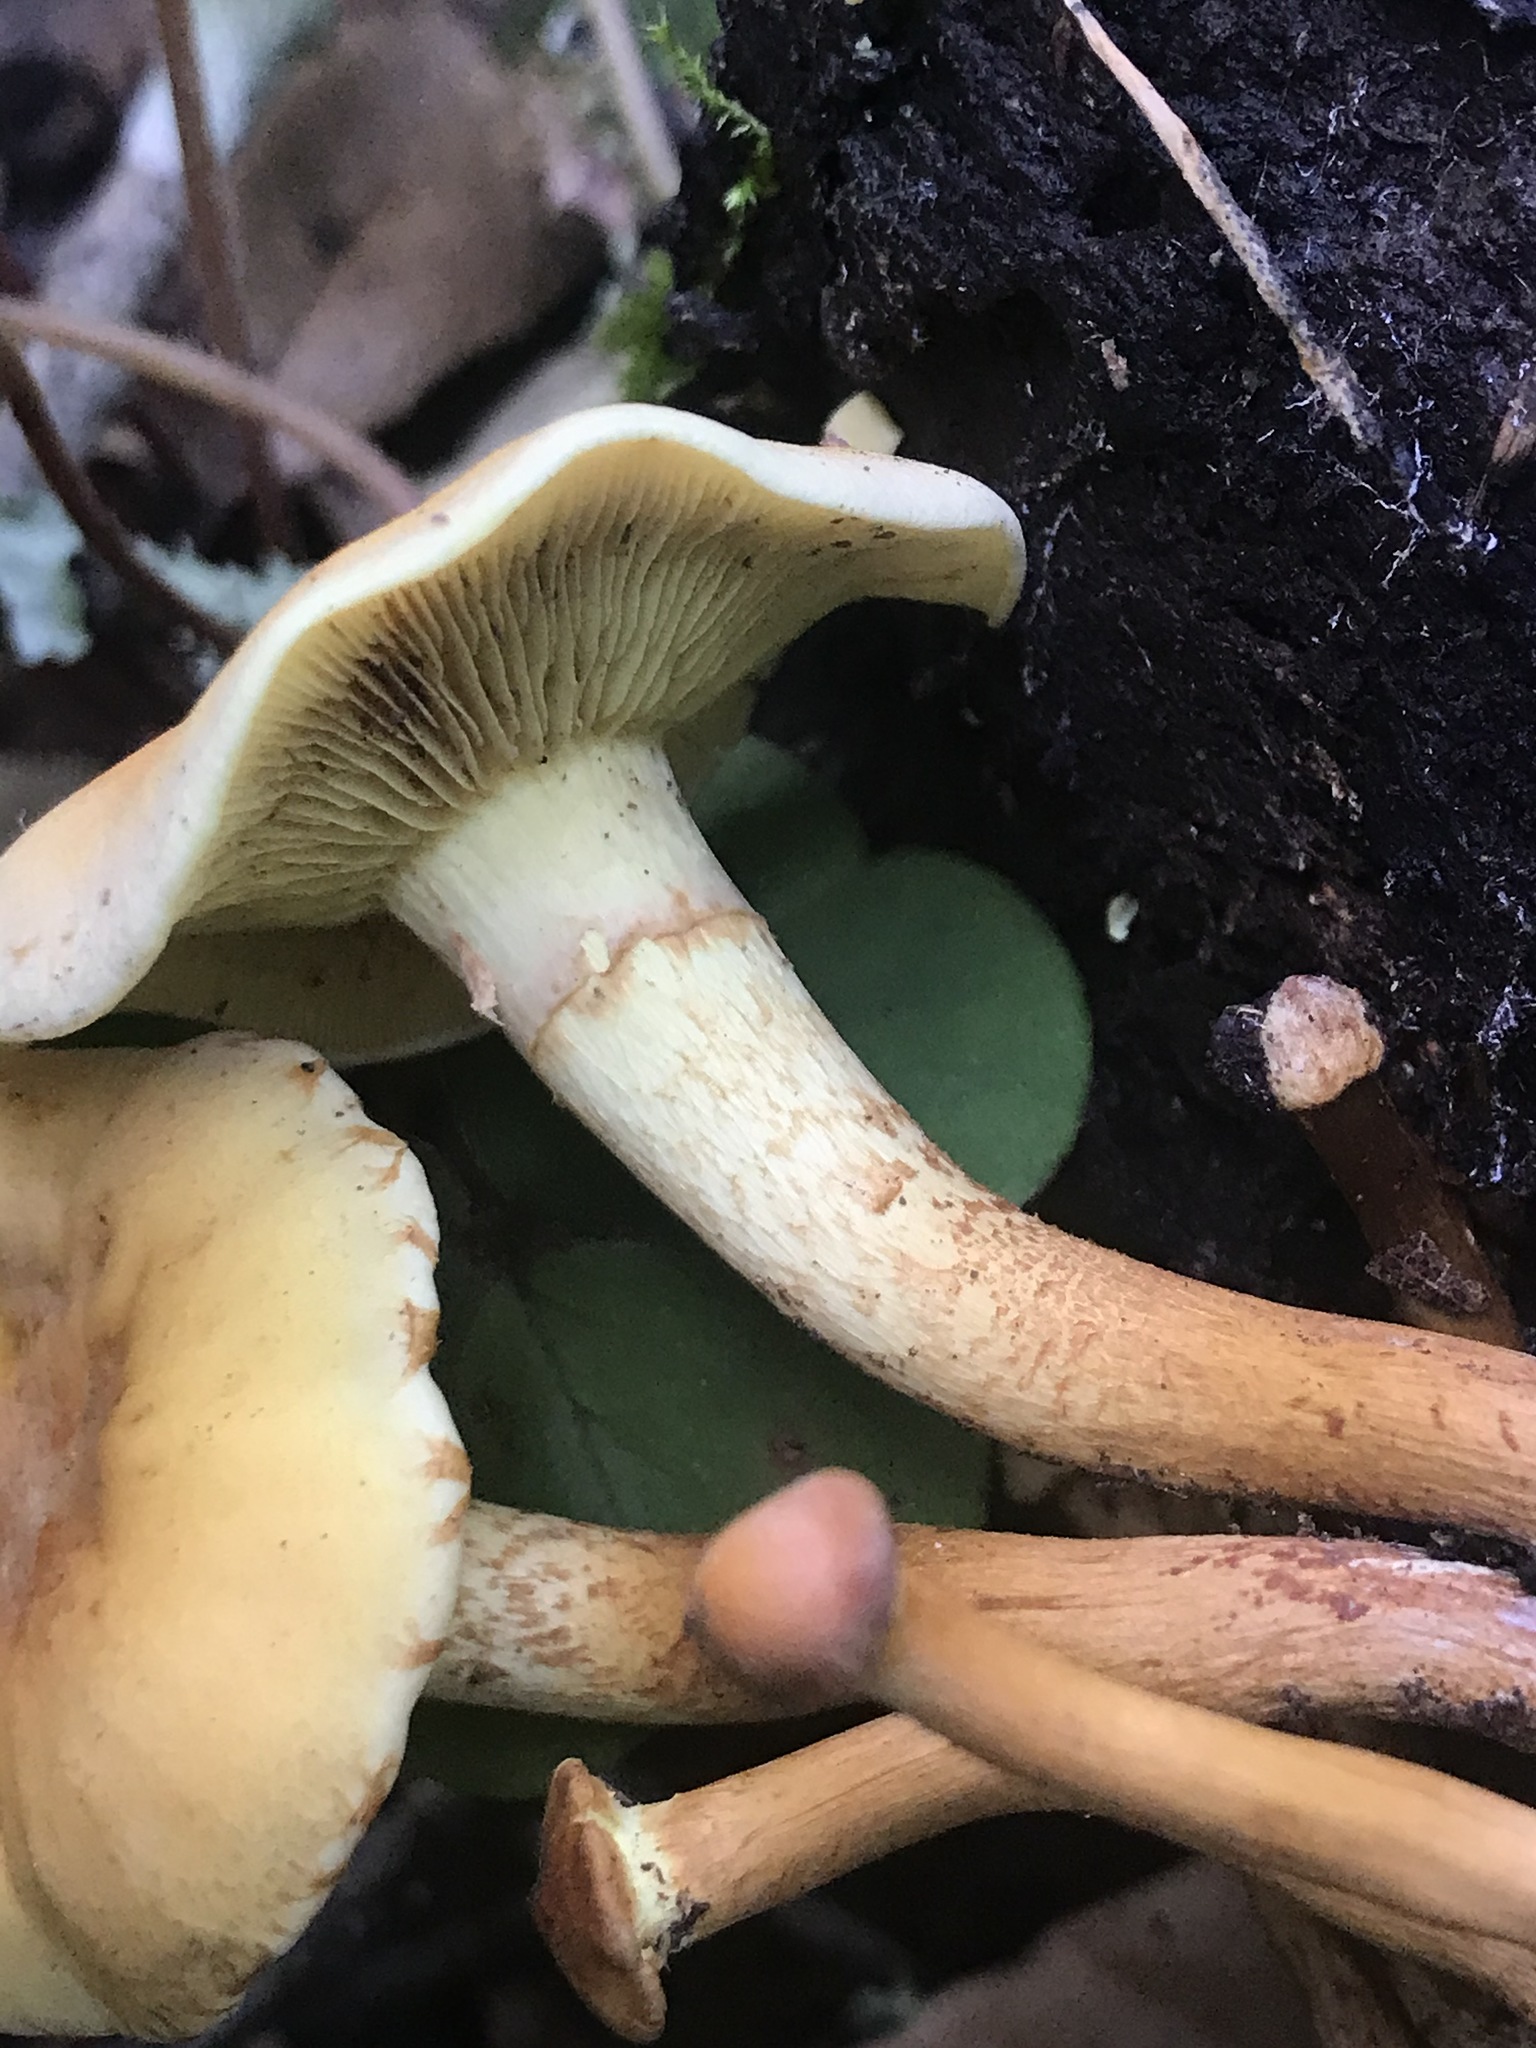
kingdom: Fungi
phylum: Basidiomycota
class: Agaricomycetes
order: Agaricales
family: Strophariaceae
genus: Hypholoma
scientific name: Hypholoma fasciculare
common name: Sulphur tuft
